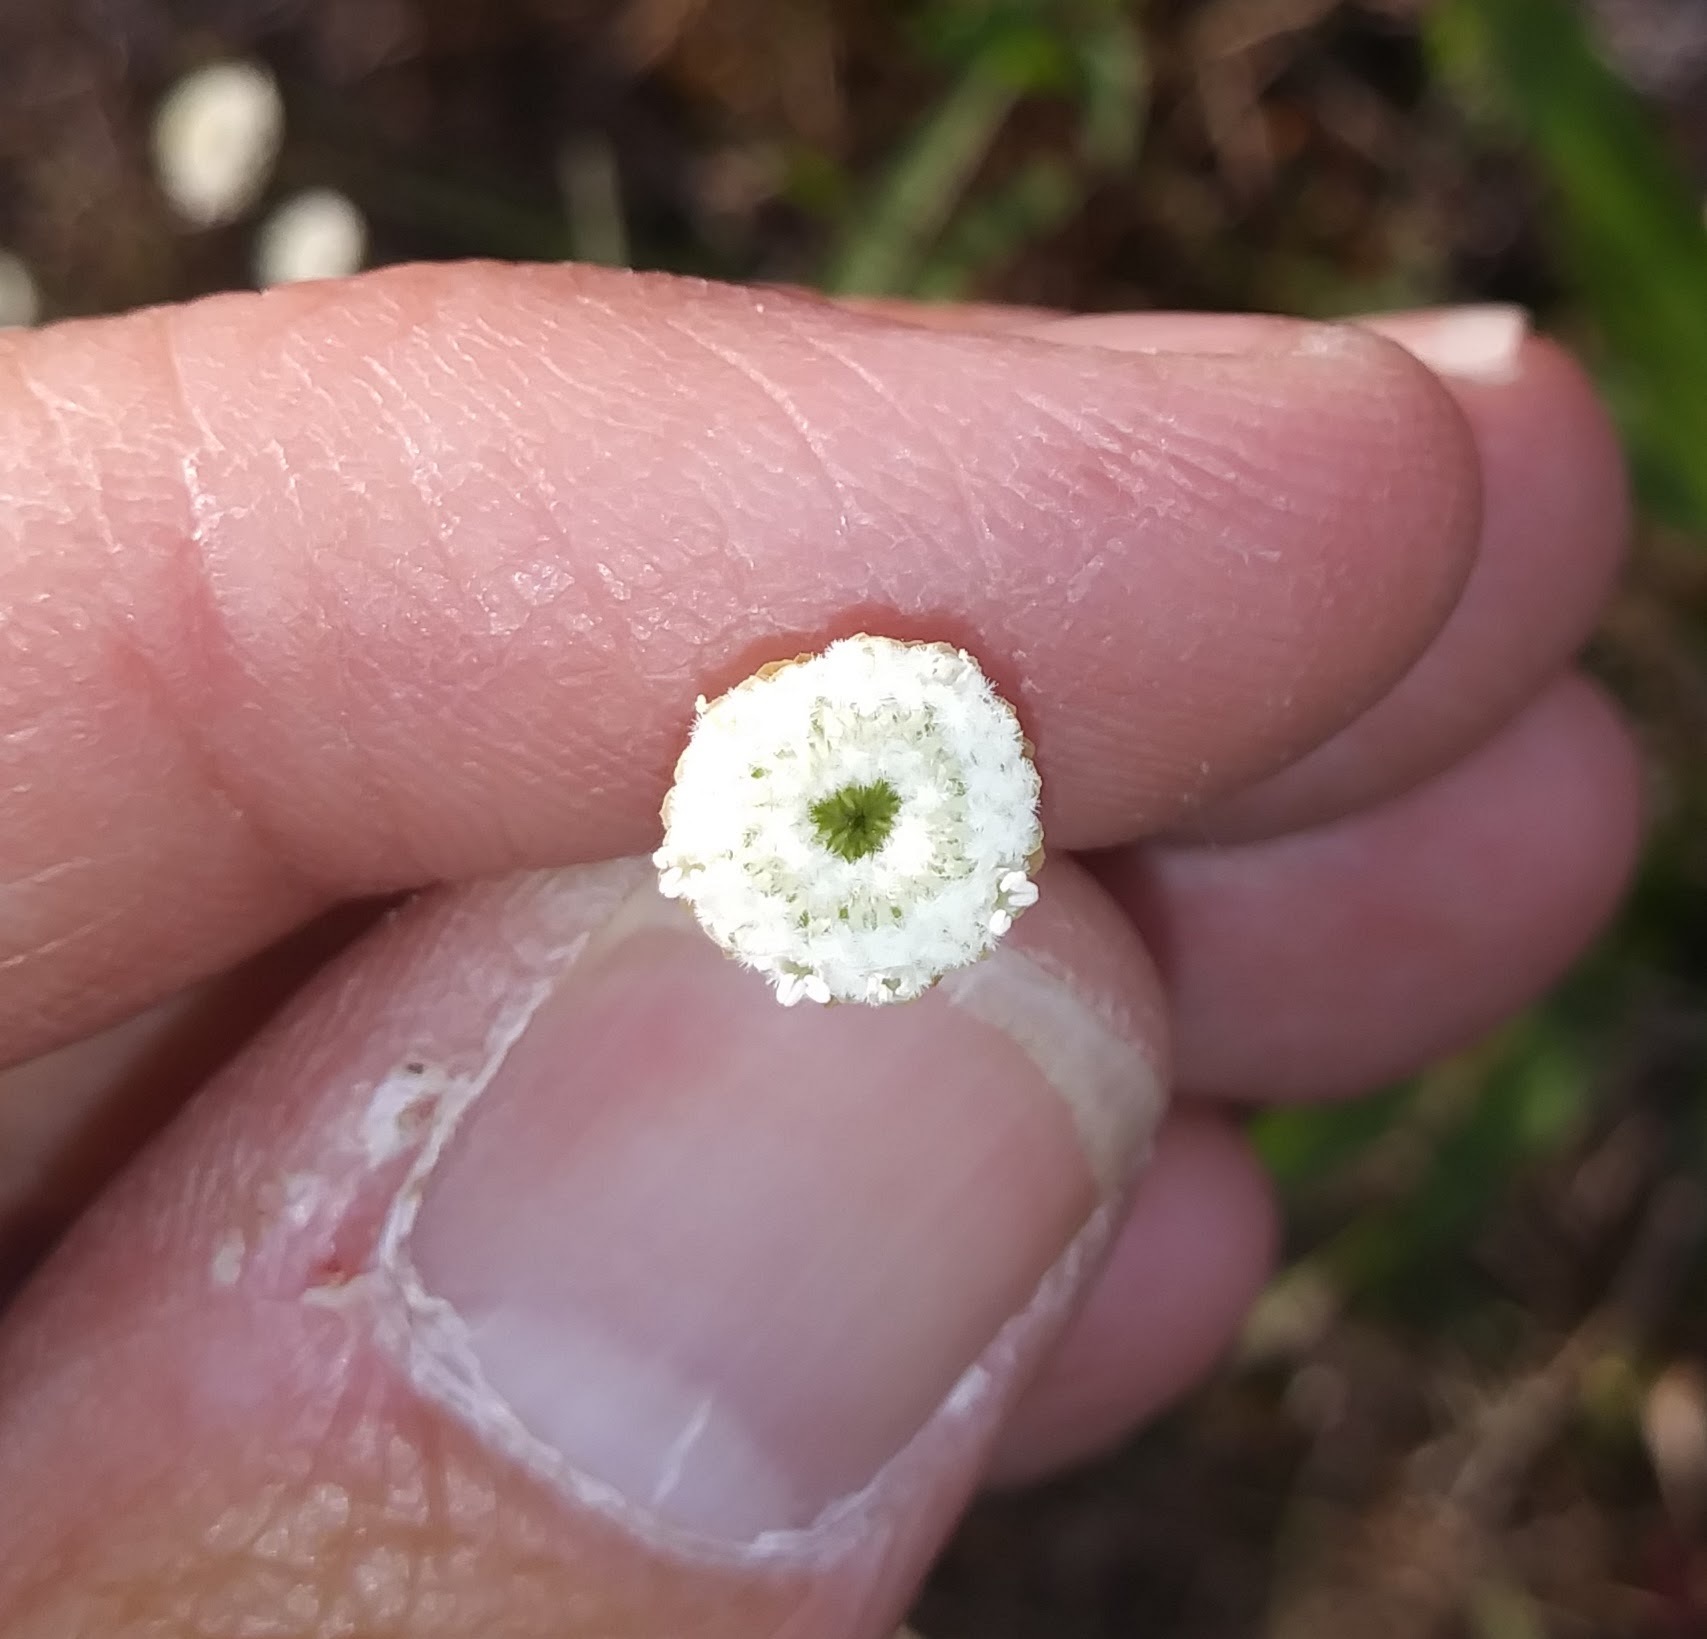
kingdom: Plantae
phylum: Tracheophyta
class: Liliopsida
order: Poales
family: Eriocaulaceae
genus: Syngonanthus
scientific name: Syngonanthus flavidulus
